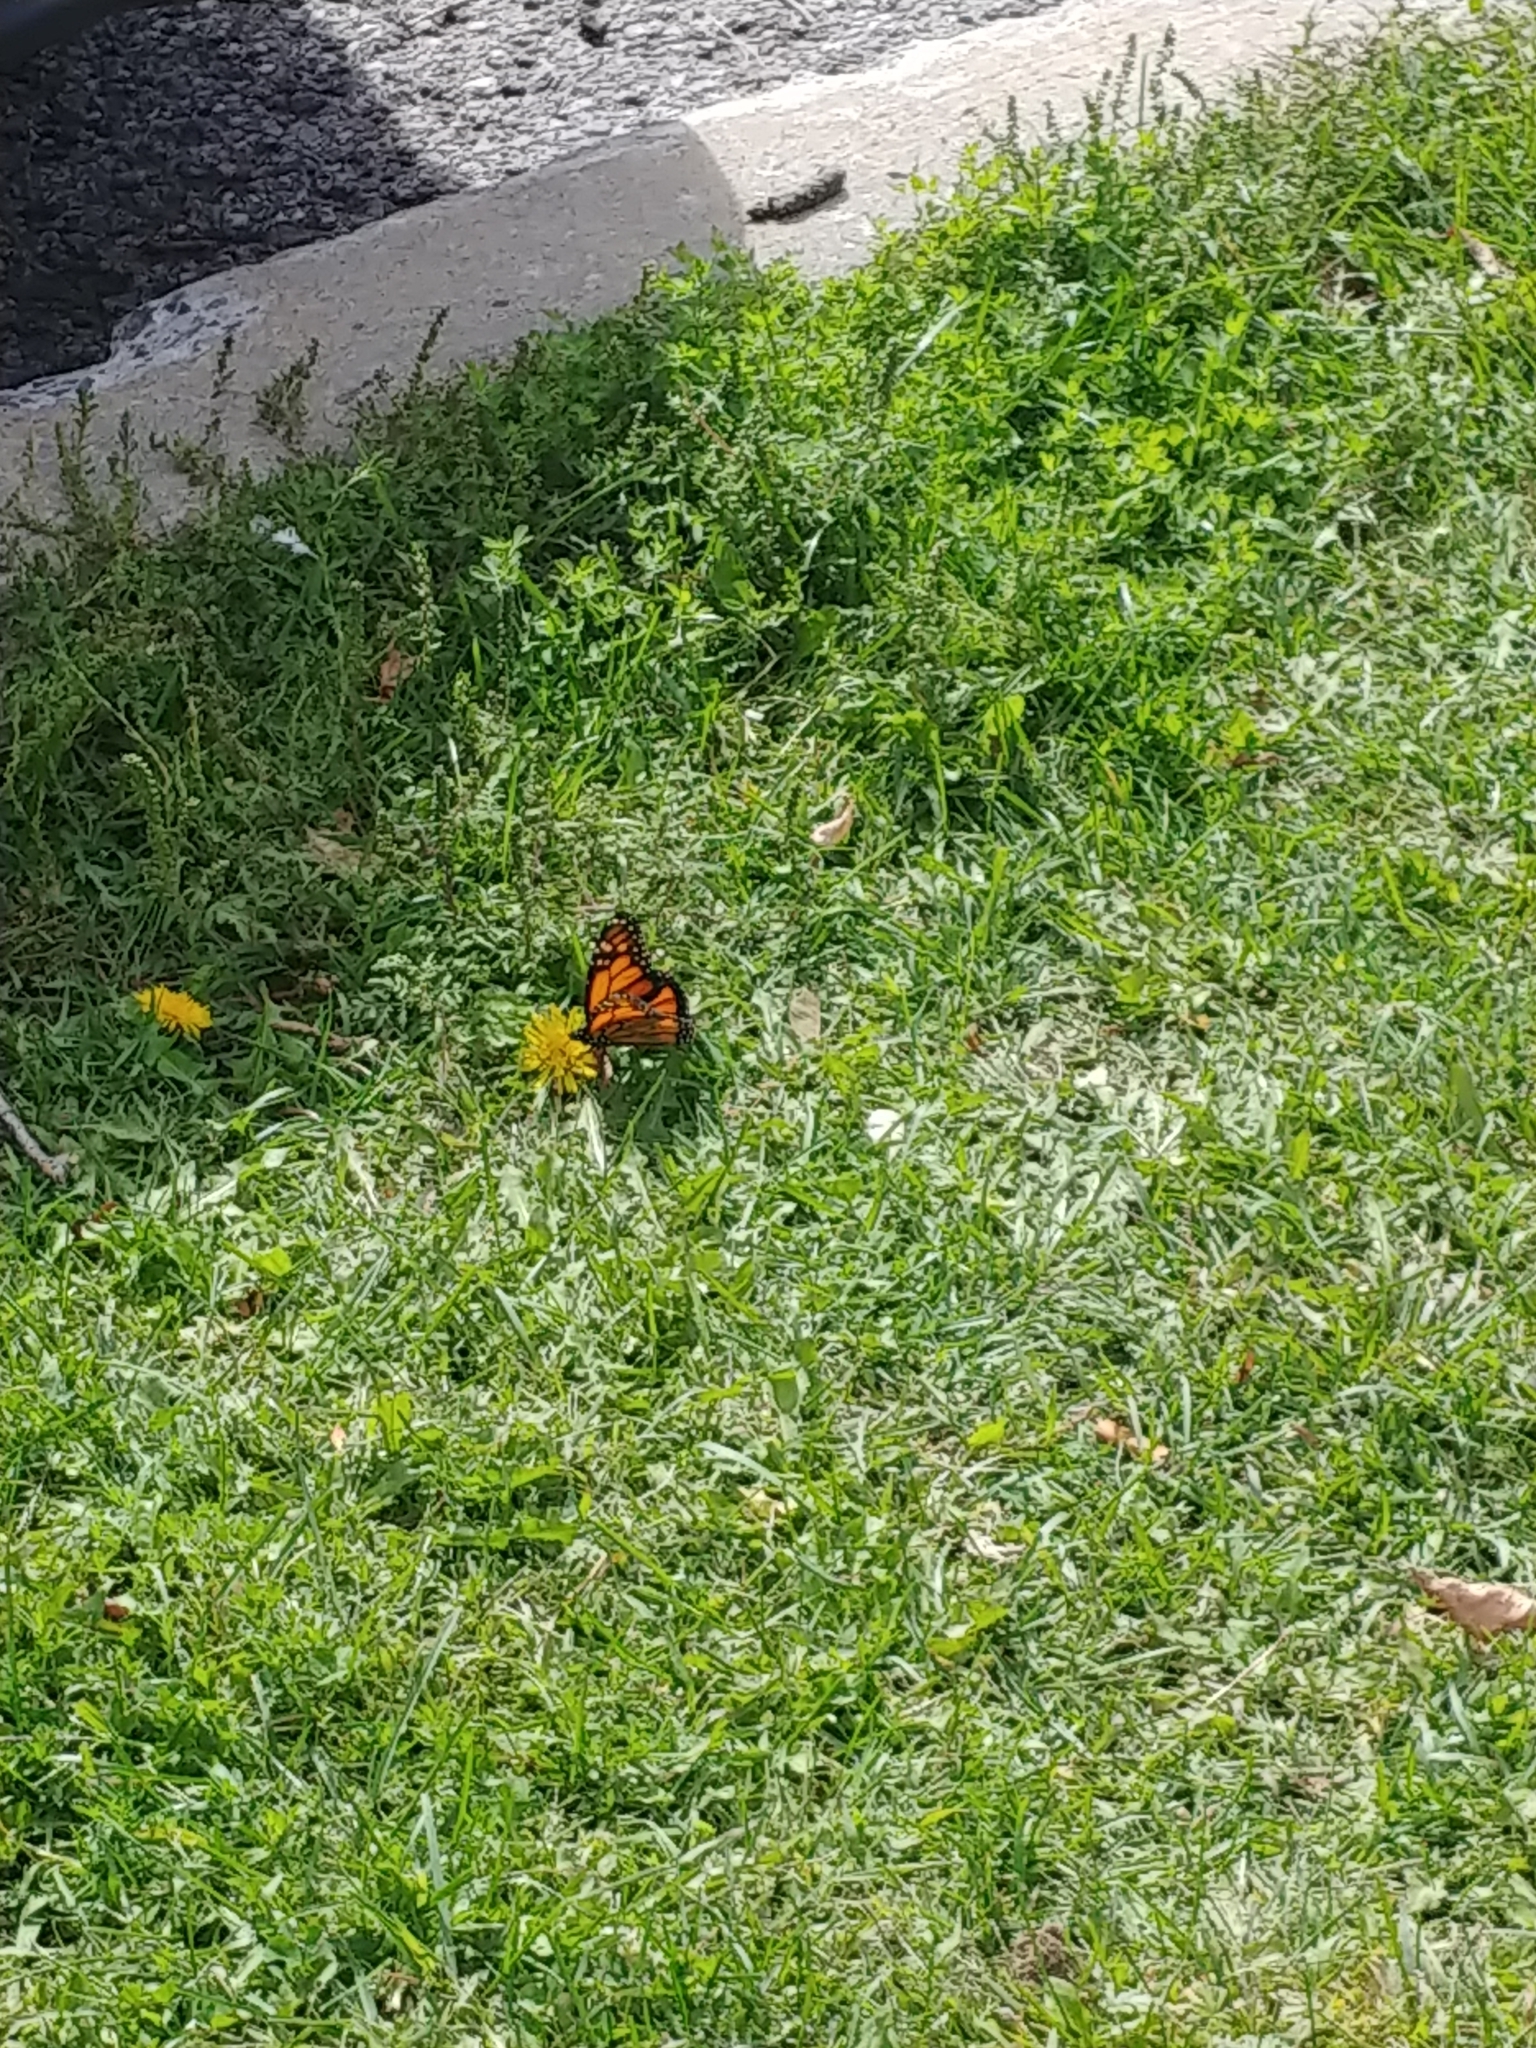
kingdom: Animalia
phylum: Arthropoda
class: Insecta
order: Lepidoptera
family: Nymphalidae
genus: Danaus
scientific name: Danaus plexippus
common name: Monarch
